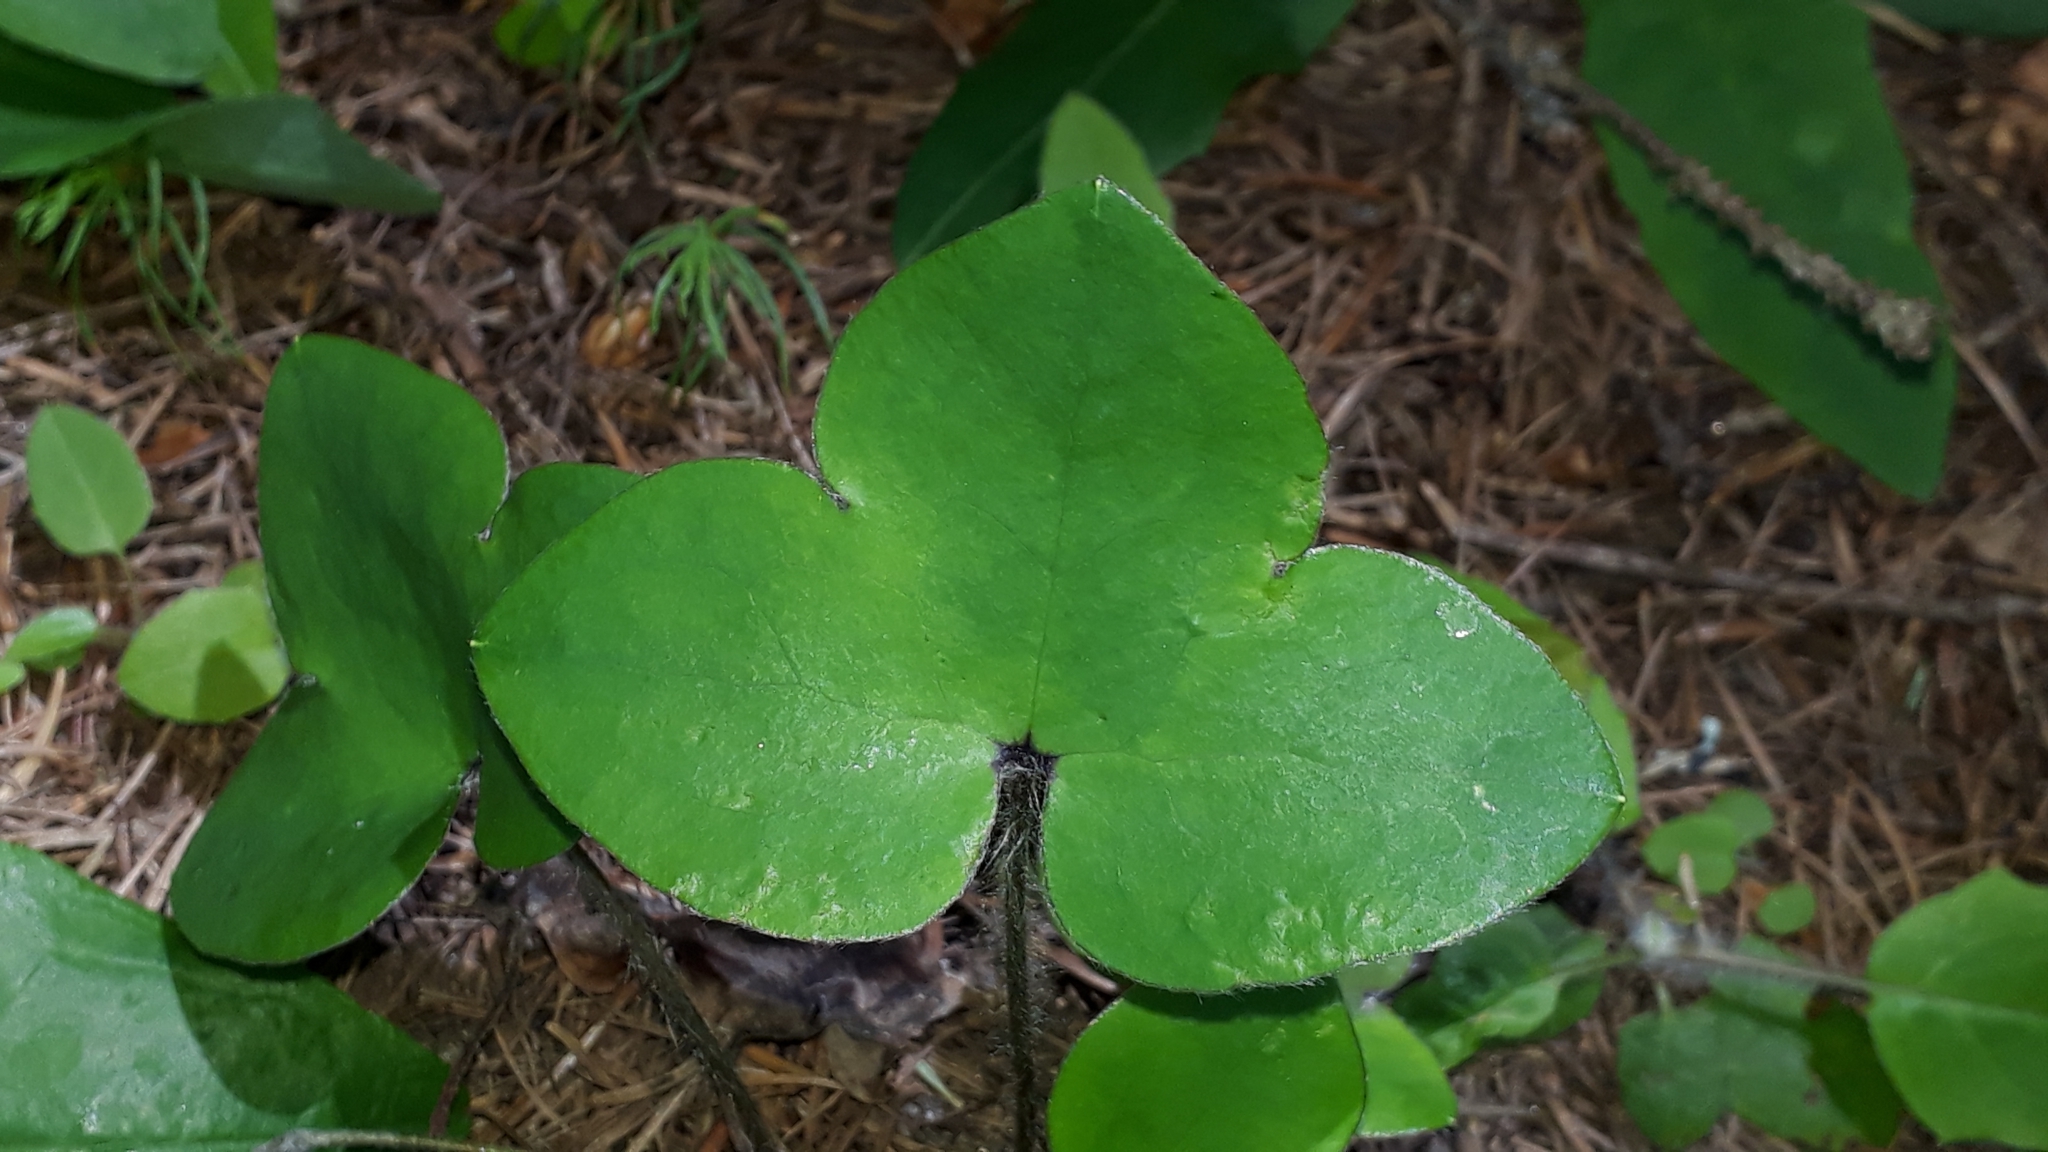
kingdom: Plantae
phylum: Tracheophyta
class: Magnoliopsida
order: Ranunculales
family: Ranunculaceae
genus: Hepatica
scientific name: Hepatica nobilis
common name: Liverleaf
